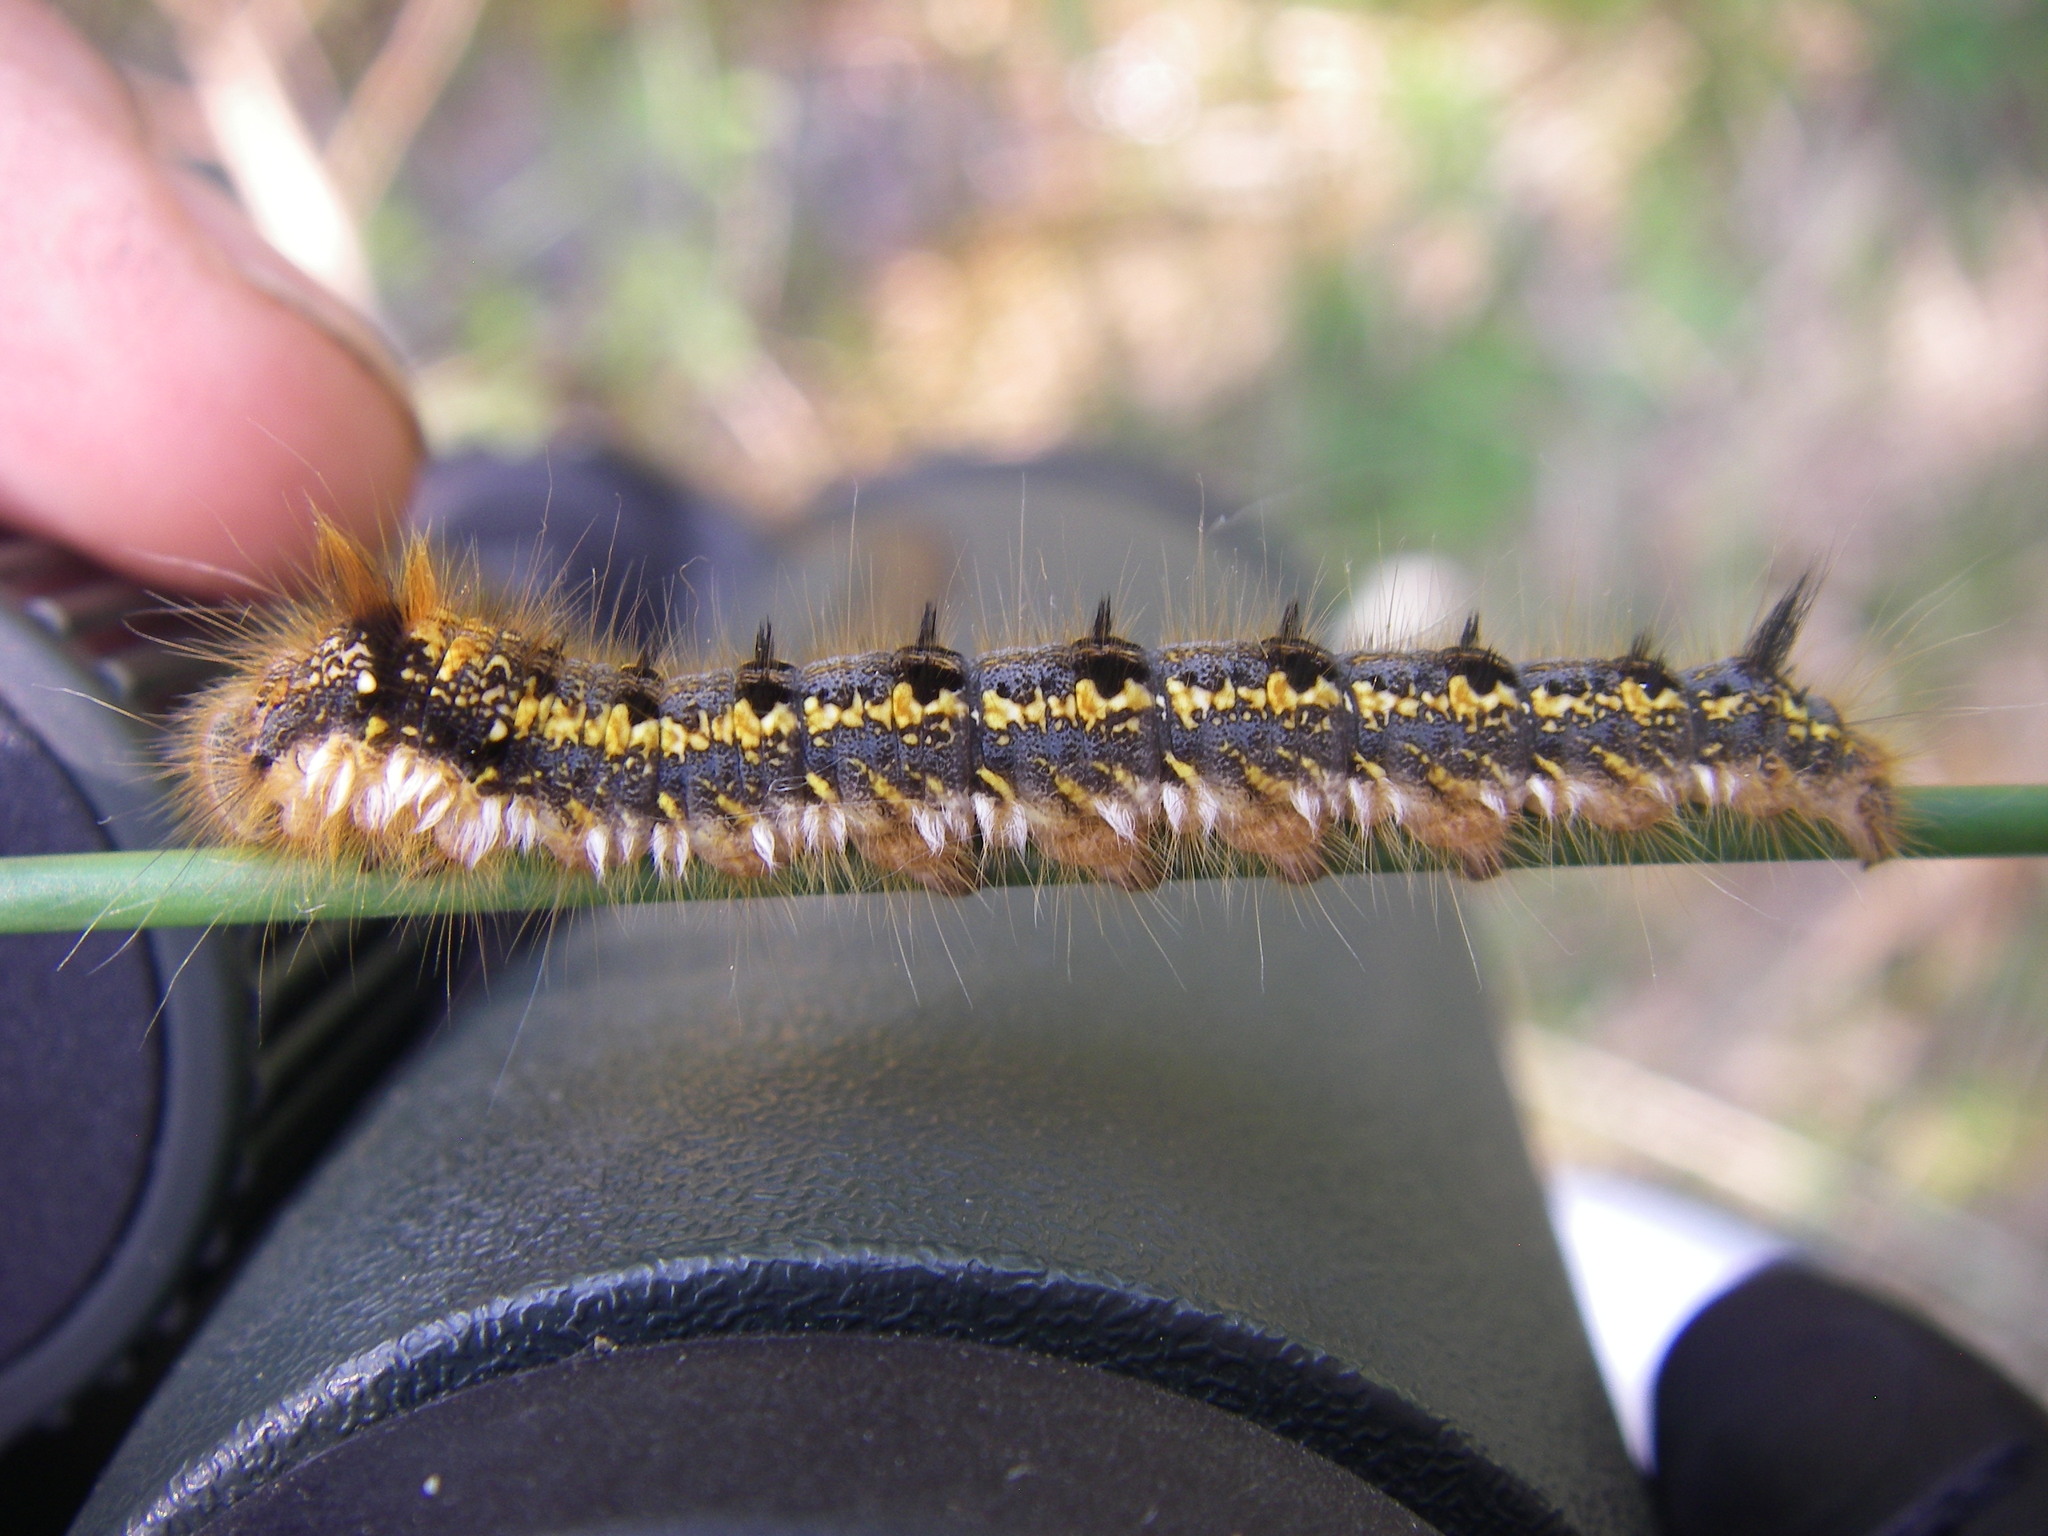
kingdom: Animalia
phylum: Arthropoda
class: Insecta
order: Lepidoptera
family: Lasiocampidae
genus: Euthrix
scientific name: Euthrix potatoria
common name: Drinker
